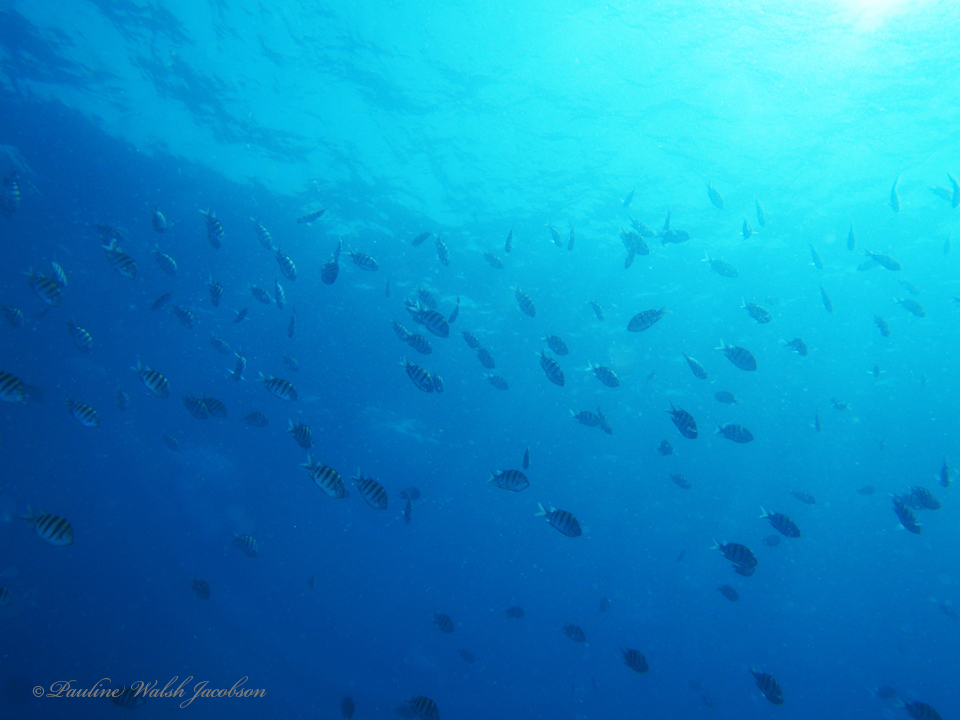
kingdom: Animalia
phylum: Chordata
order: Perciformes
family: Pomacentridae
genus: Abudefduf
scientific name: Abudefduf saxatilis
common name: Sergeant major
